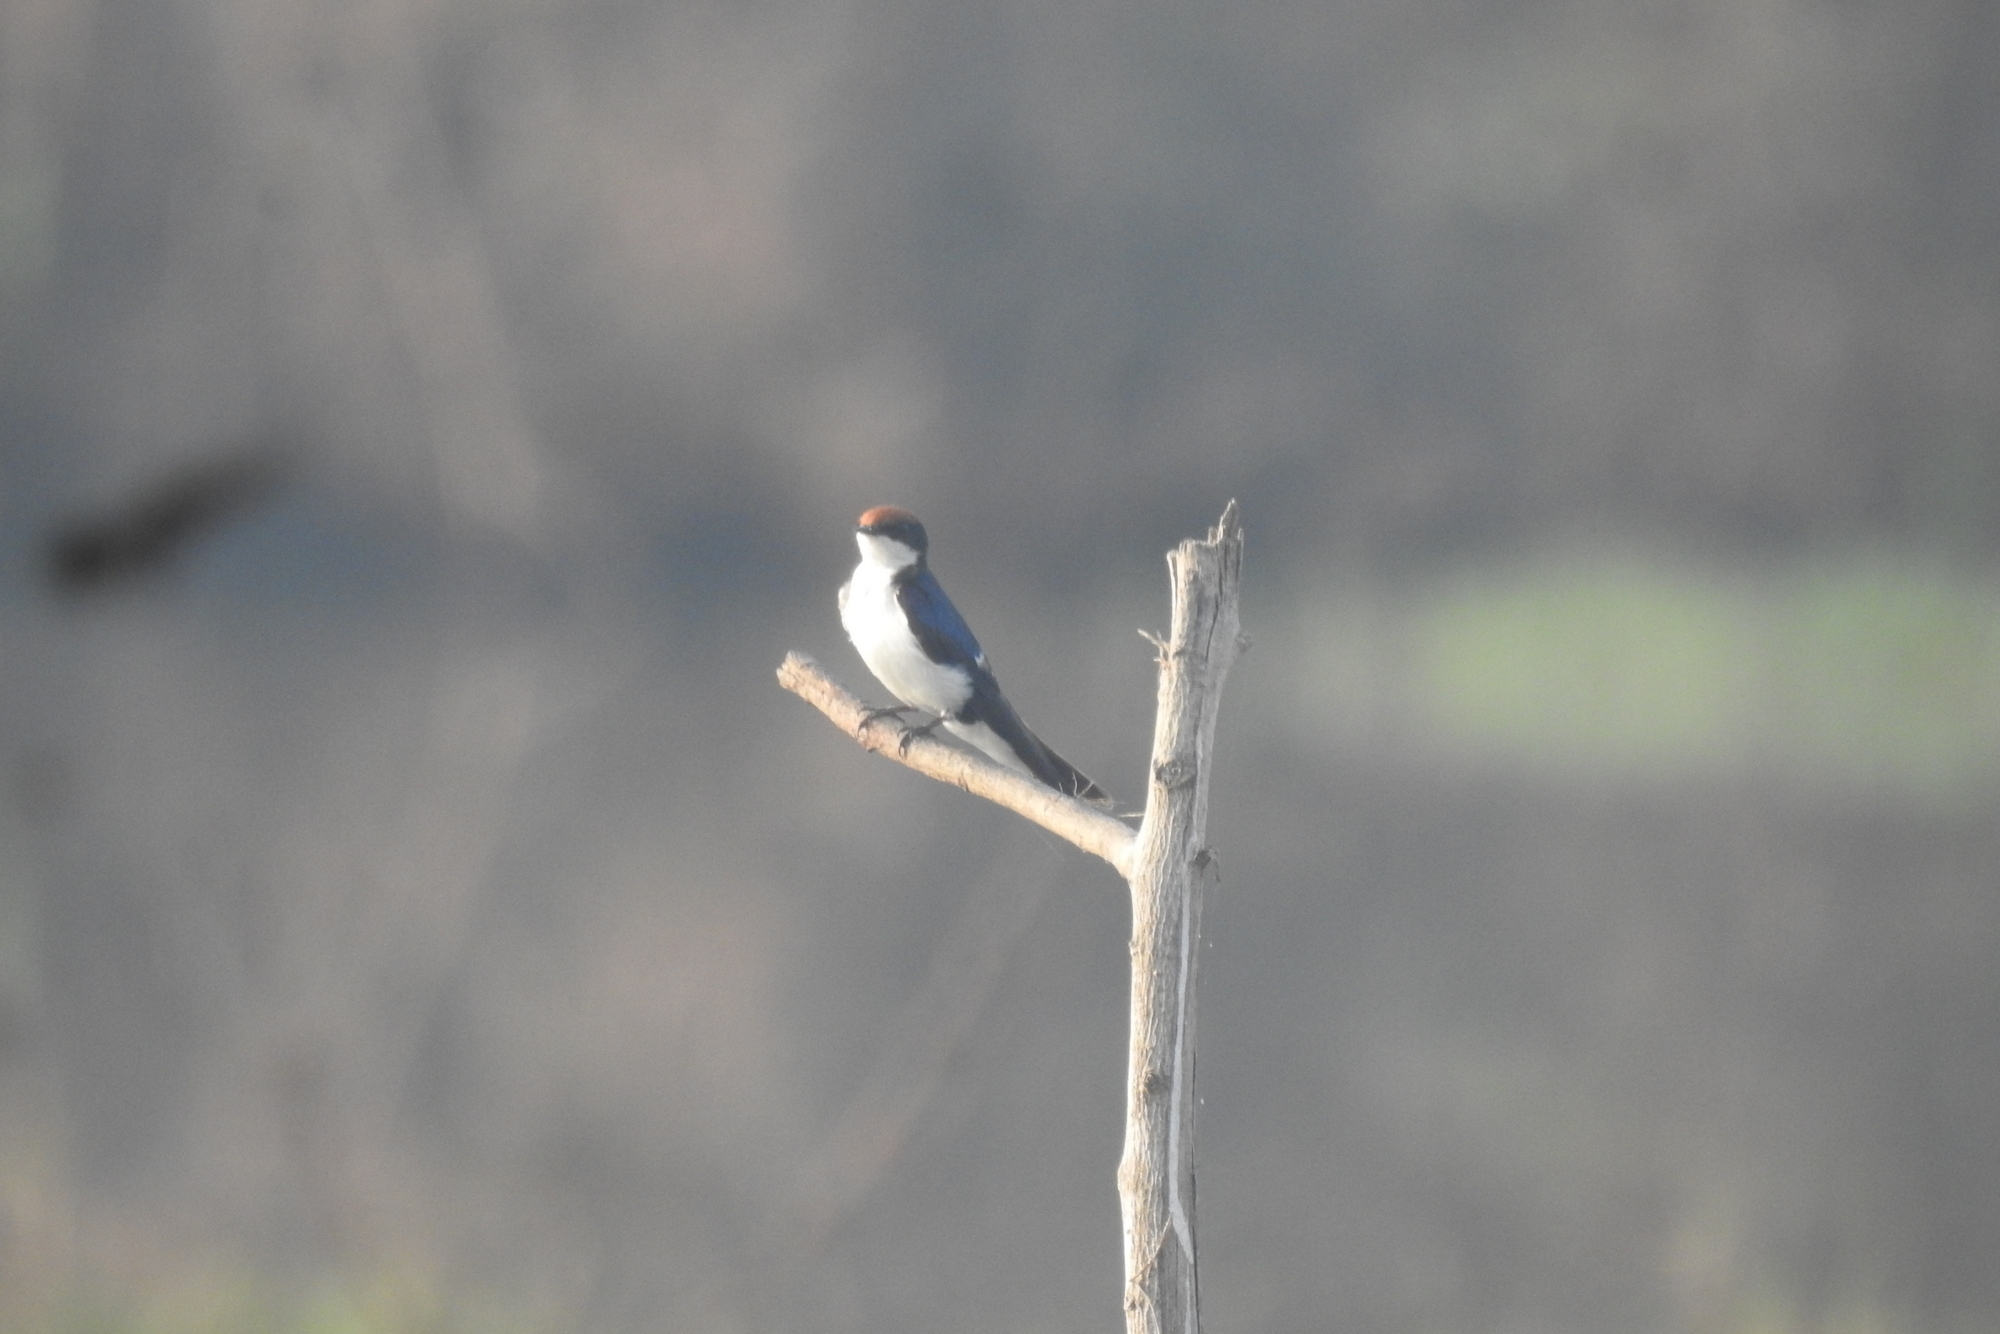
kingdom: Animalia
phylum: Chordata
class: Aves
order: Passeriformes
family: Hirundinidae
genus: Hirundo
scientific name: Hirundo smithii
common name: Wire-tailed swallow
